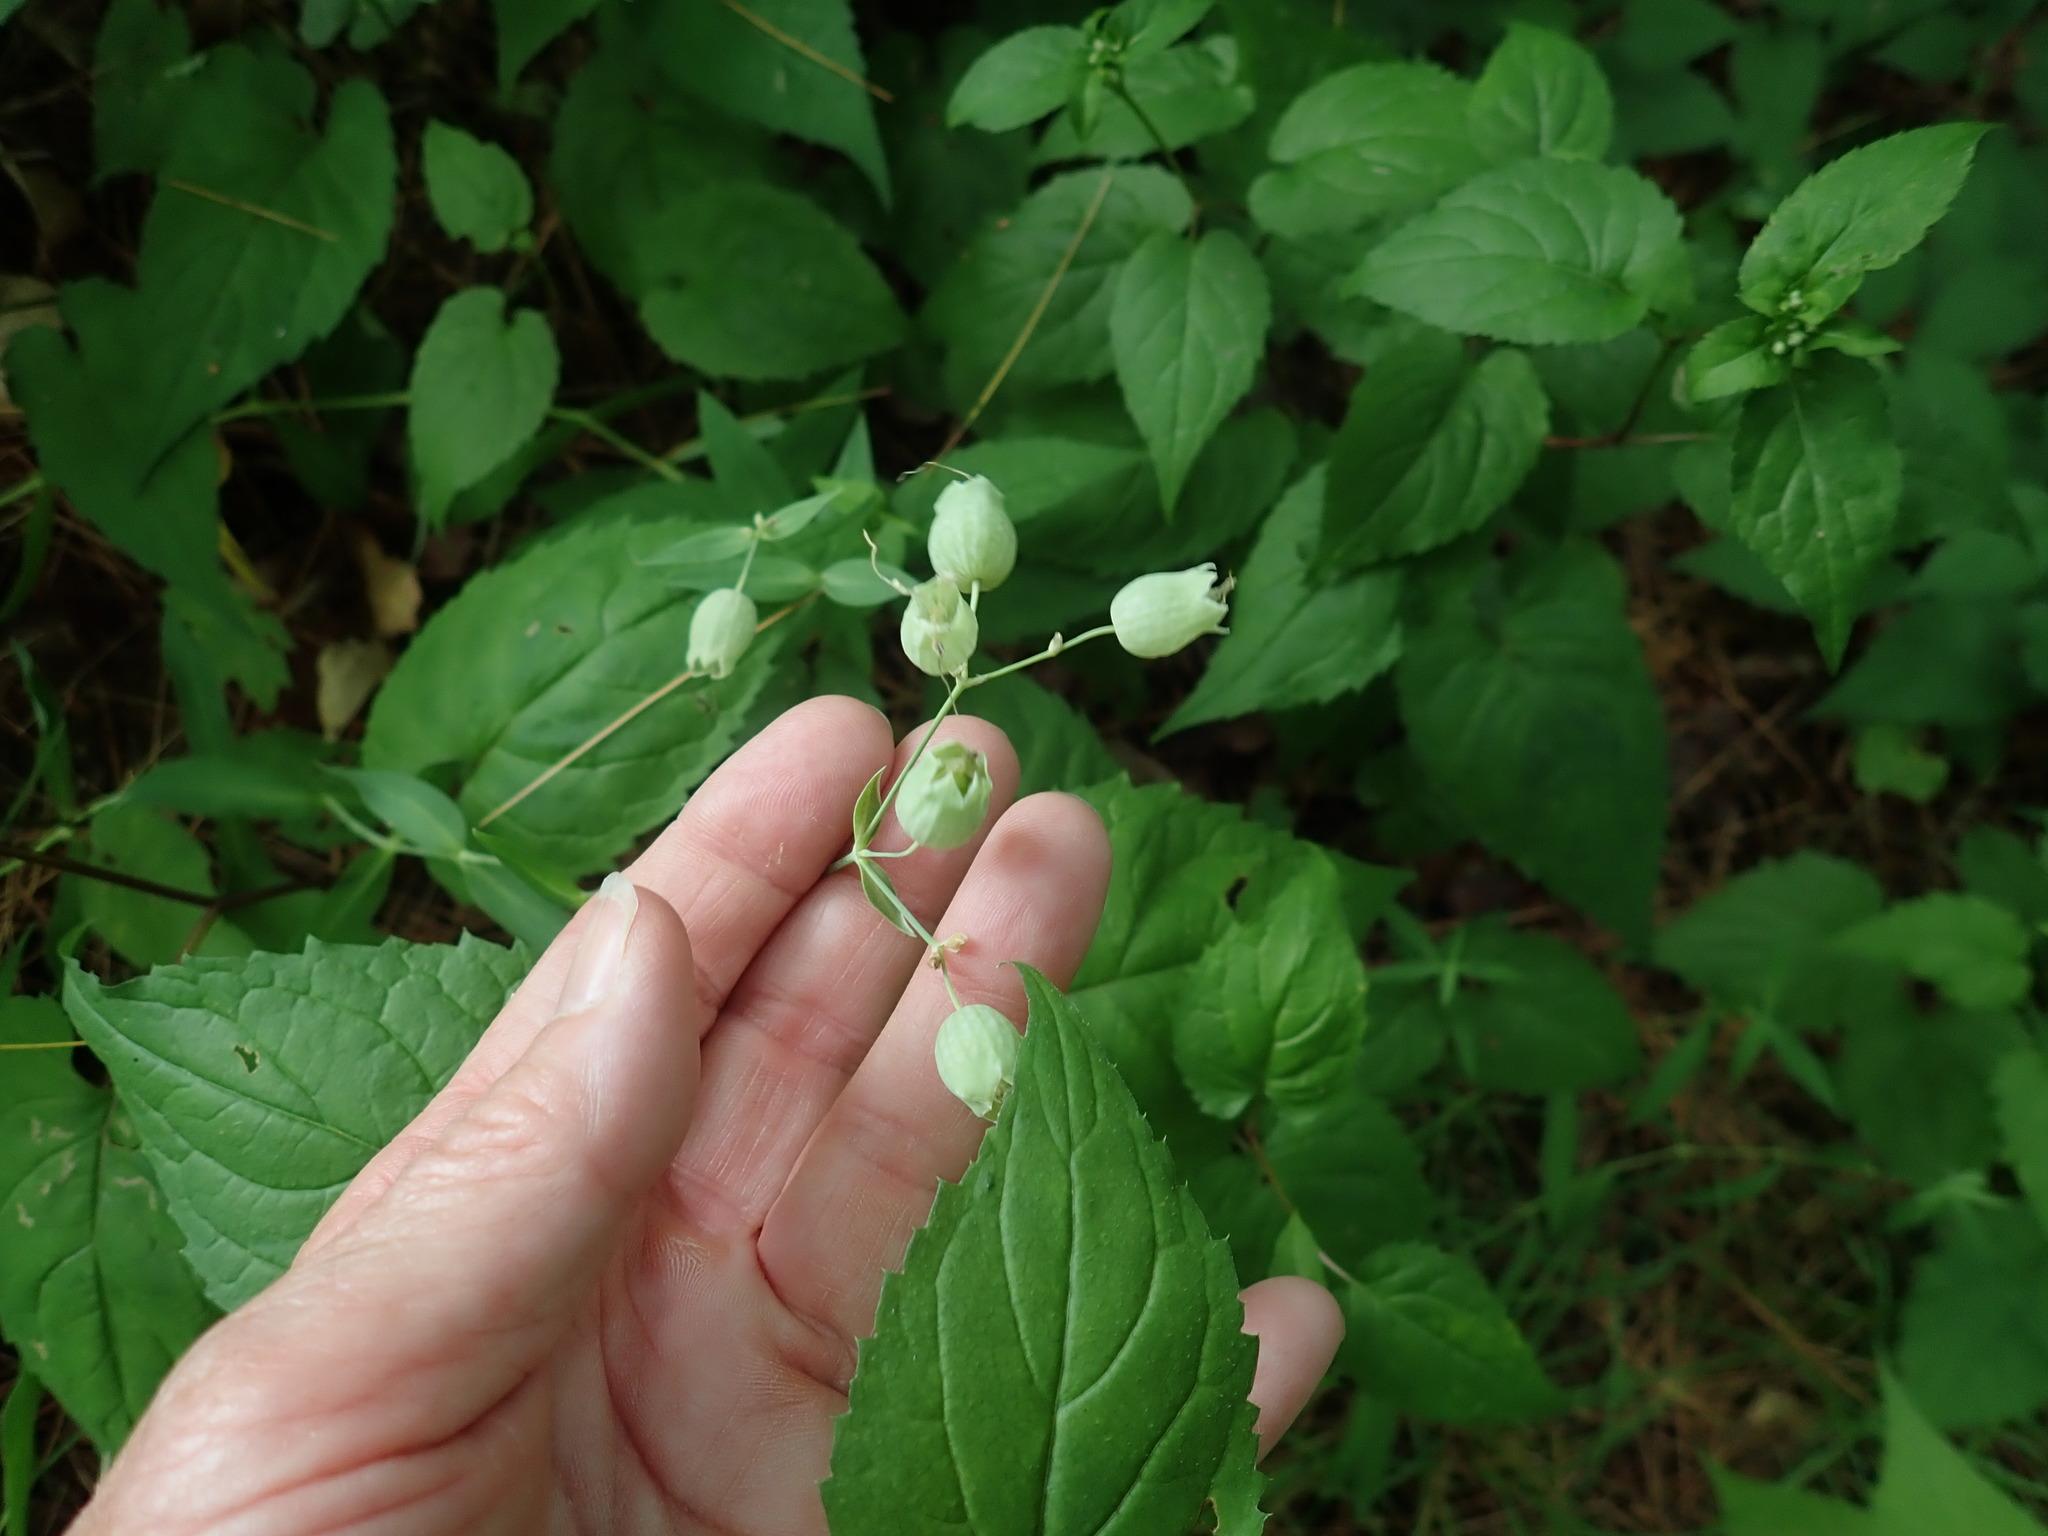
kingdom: Plantae
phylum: Tracheophyta
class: Magnoliopsida
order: Caryophyllales
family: Caryophyllaceae
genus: Silene
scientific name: Silene vulgaris
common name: Bladder campion
